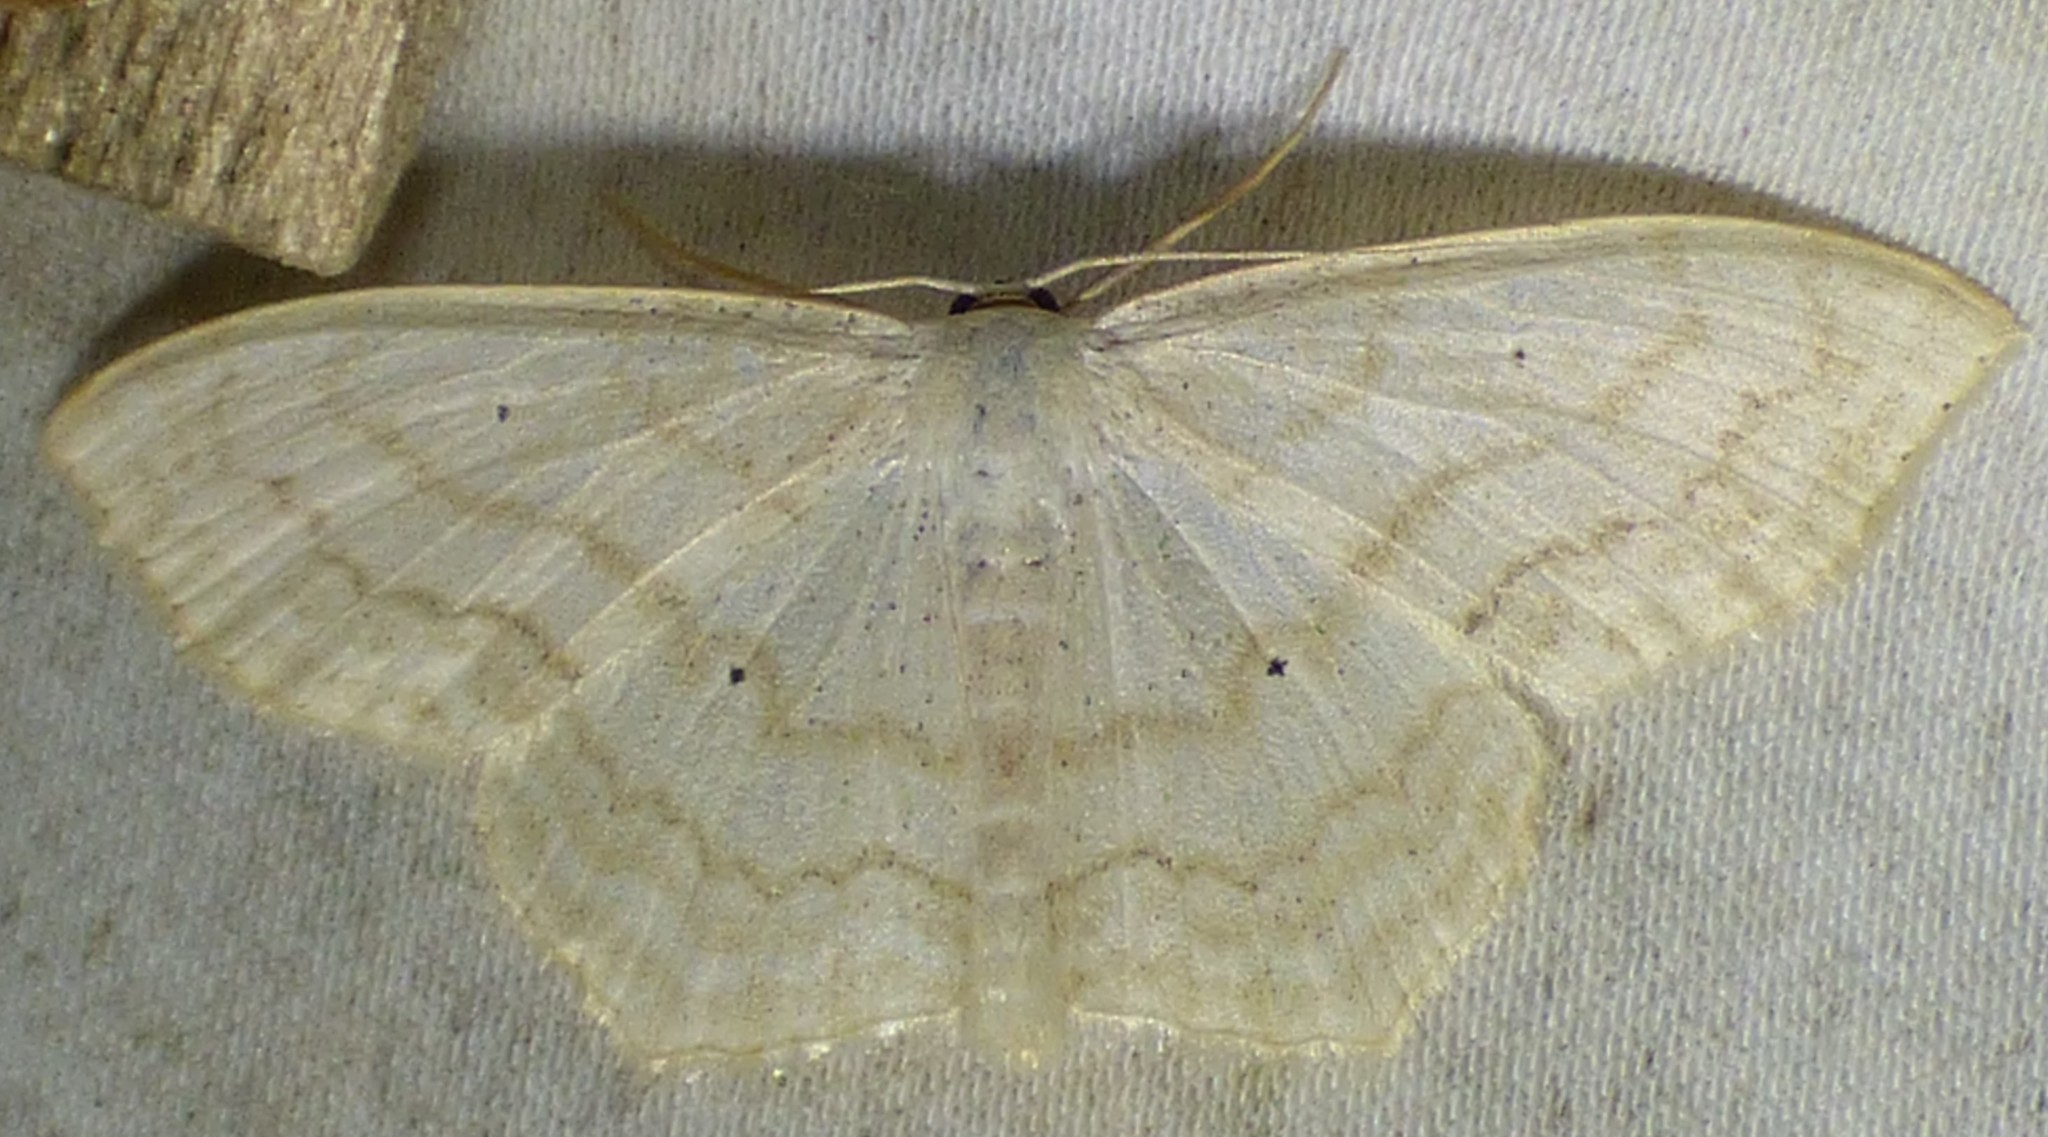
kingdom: Animalia
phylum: Arthropoda
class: Insecta
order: Lepidoptera
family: Geometridae
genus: Scopula
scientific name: Scopula limboundata
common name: Large lace border
